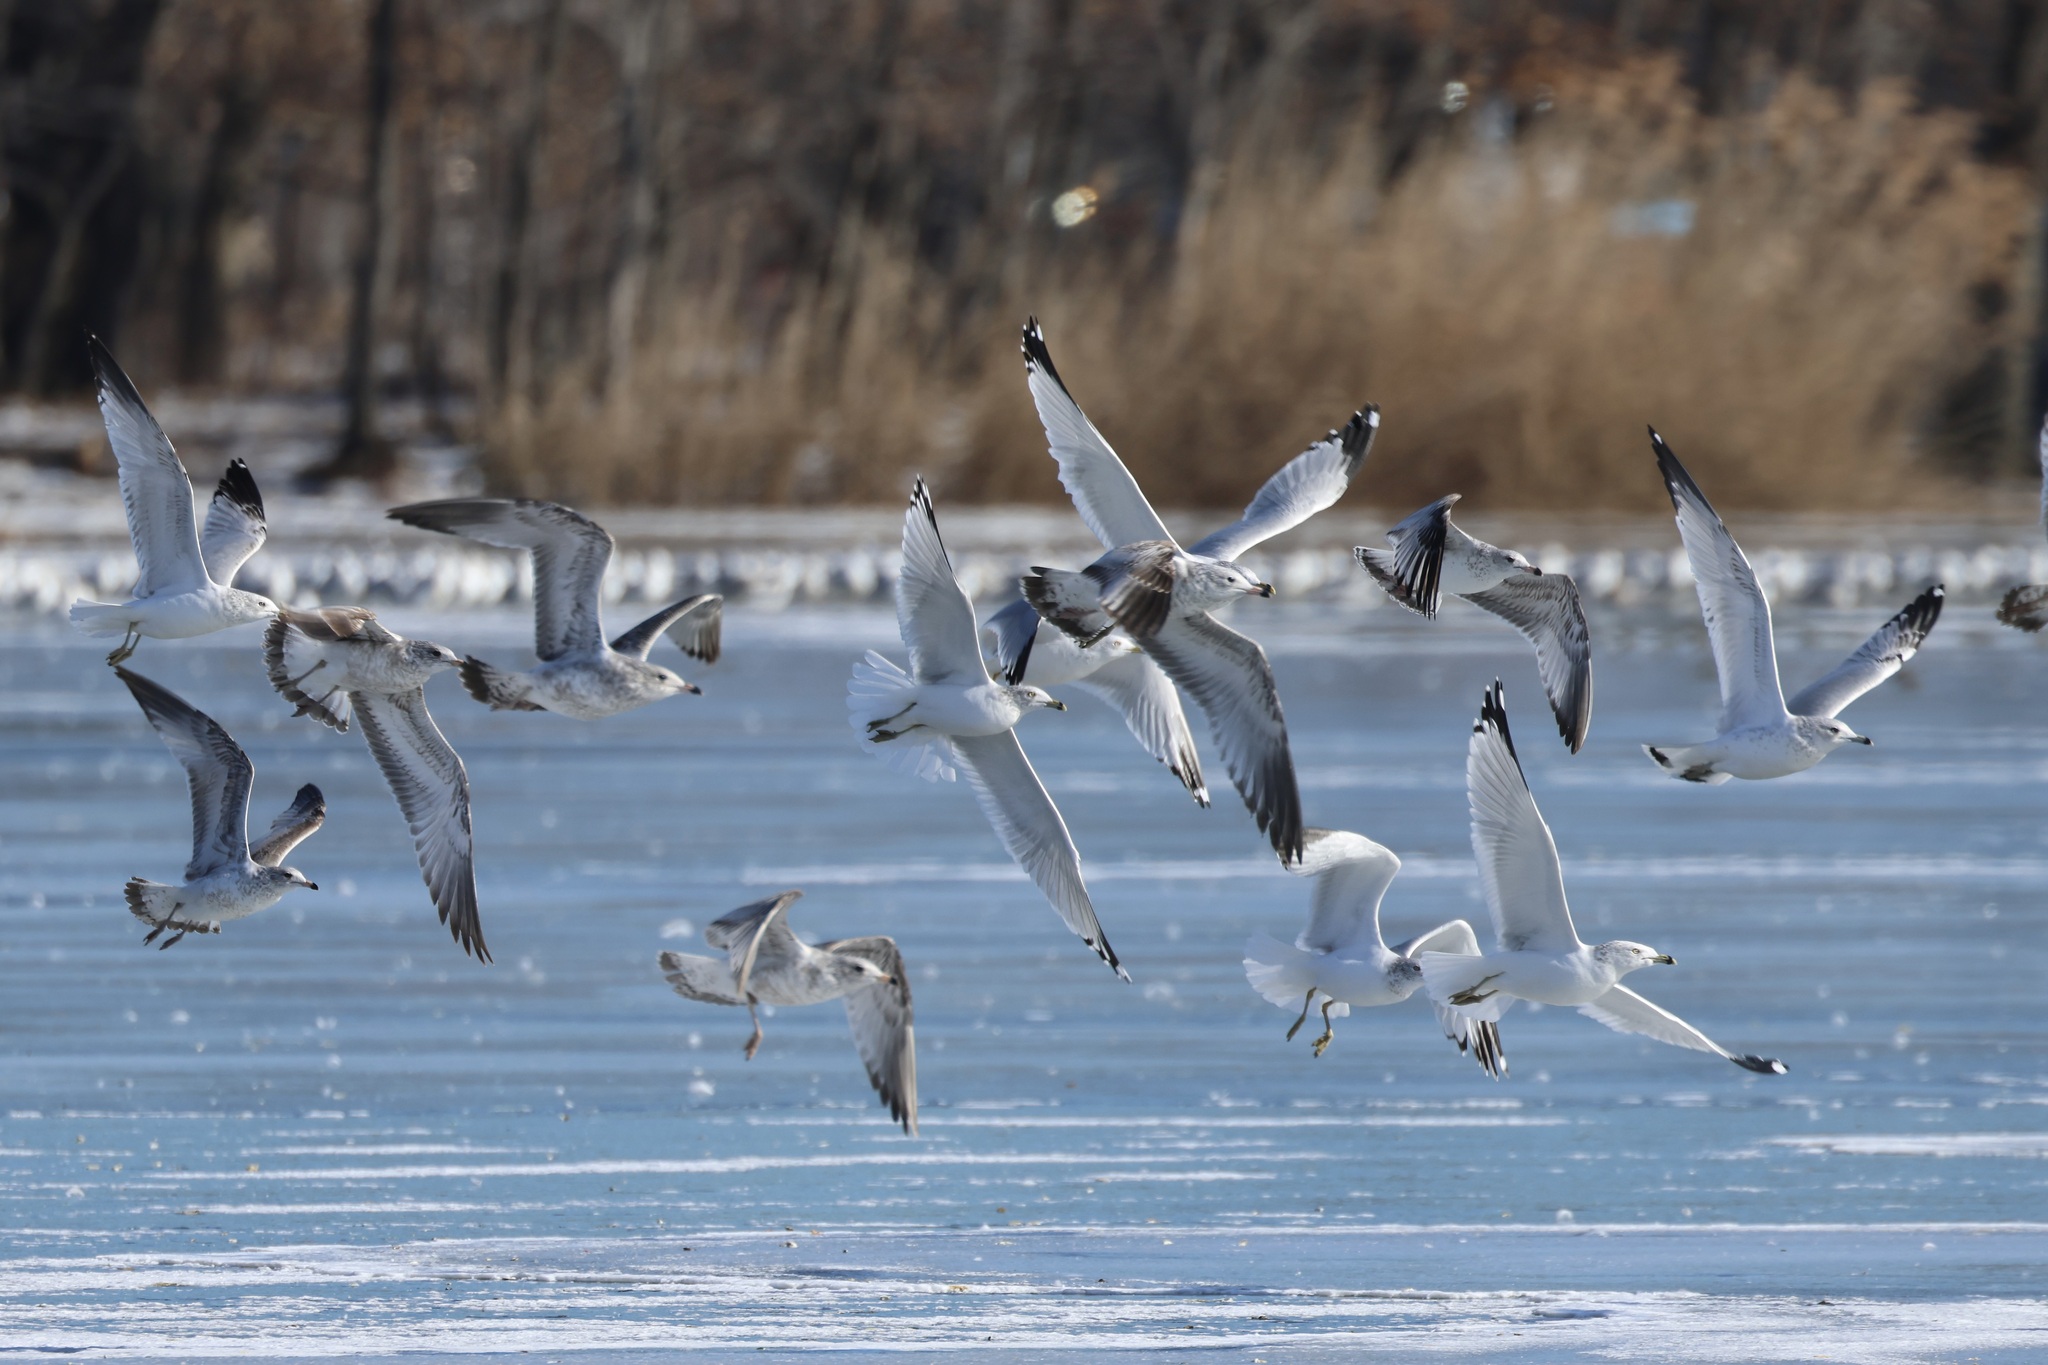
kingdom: Animalia
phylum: Chordata
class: Aves
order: Charadriiformes
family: Laridae
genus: Larus
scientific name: Larus delawarensis
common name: Ring-billed gull
